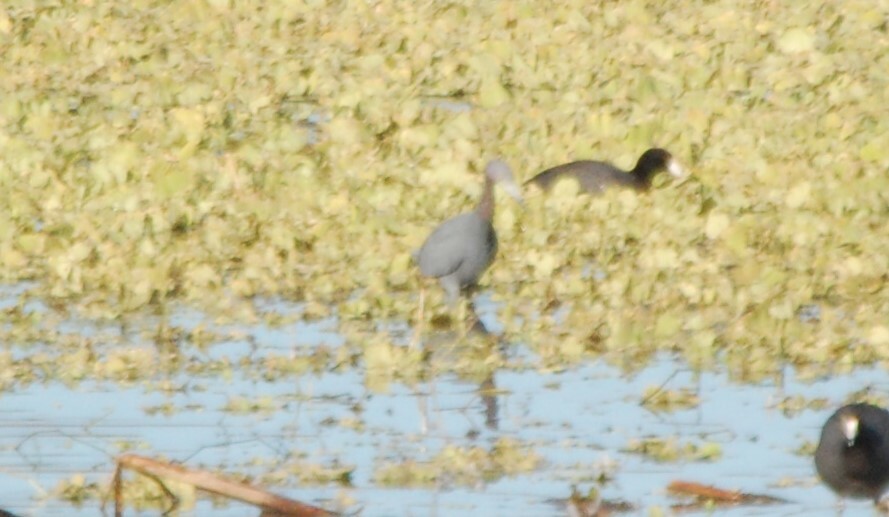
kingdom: Animalia
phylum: Chordata
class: Aves
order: Pelecaniformes
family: Ardeidae
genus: Egretta
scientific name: Egretta caerulea
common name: Little blue heron
